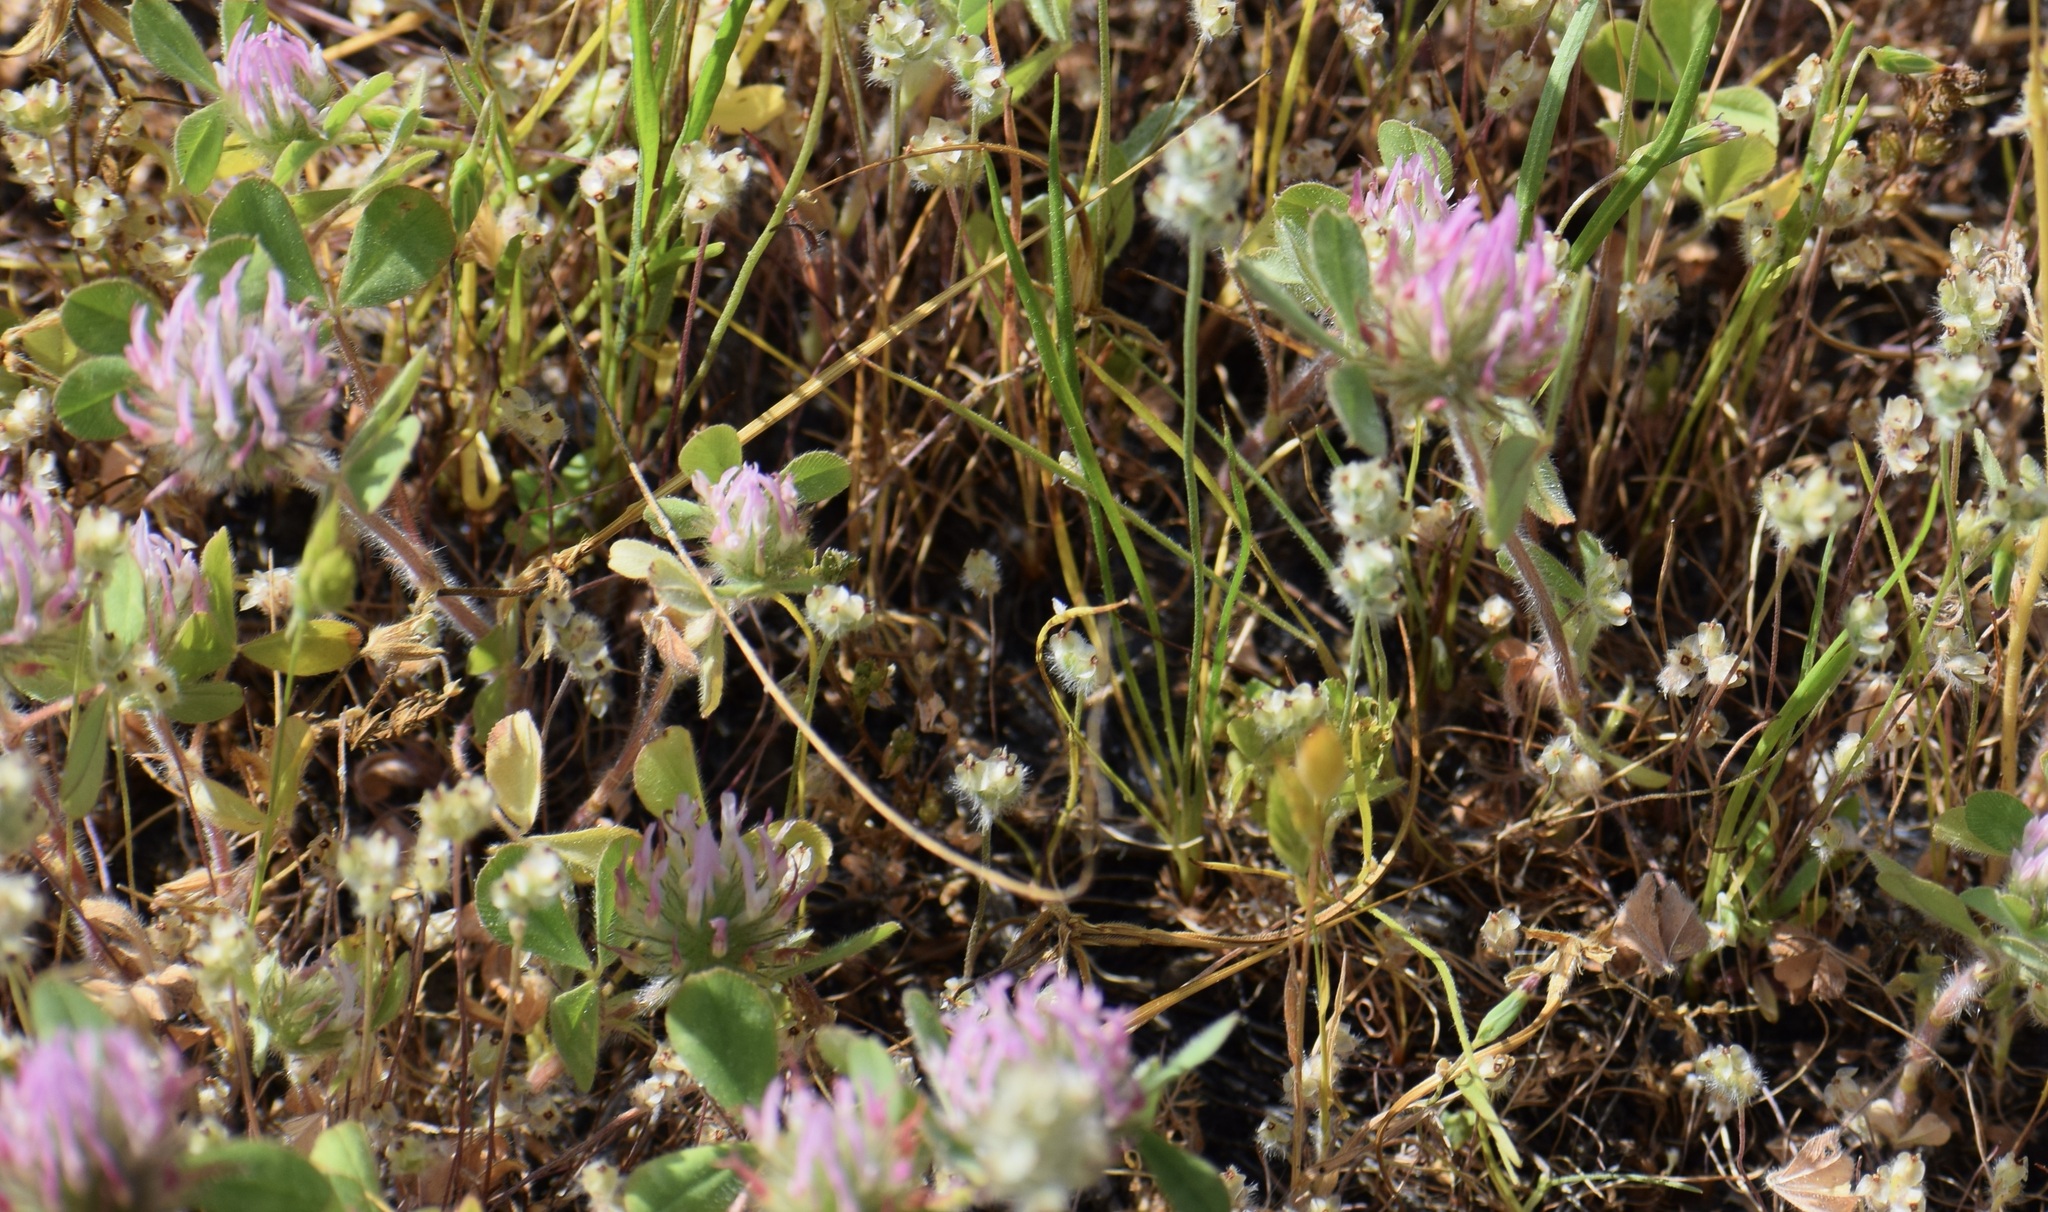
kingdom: Plantae
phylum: Tracheophyta
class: Magnoliopsida
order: Fabales
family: Fabaceae
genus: Trifolium
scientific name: Trifolium hirtum
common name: Rose clover
